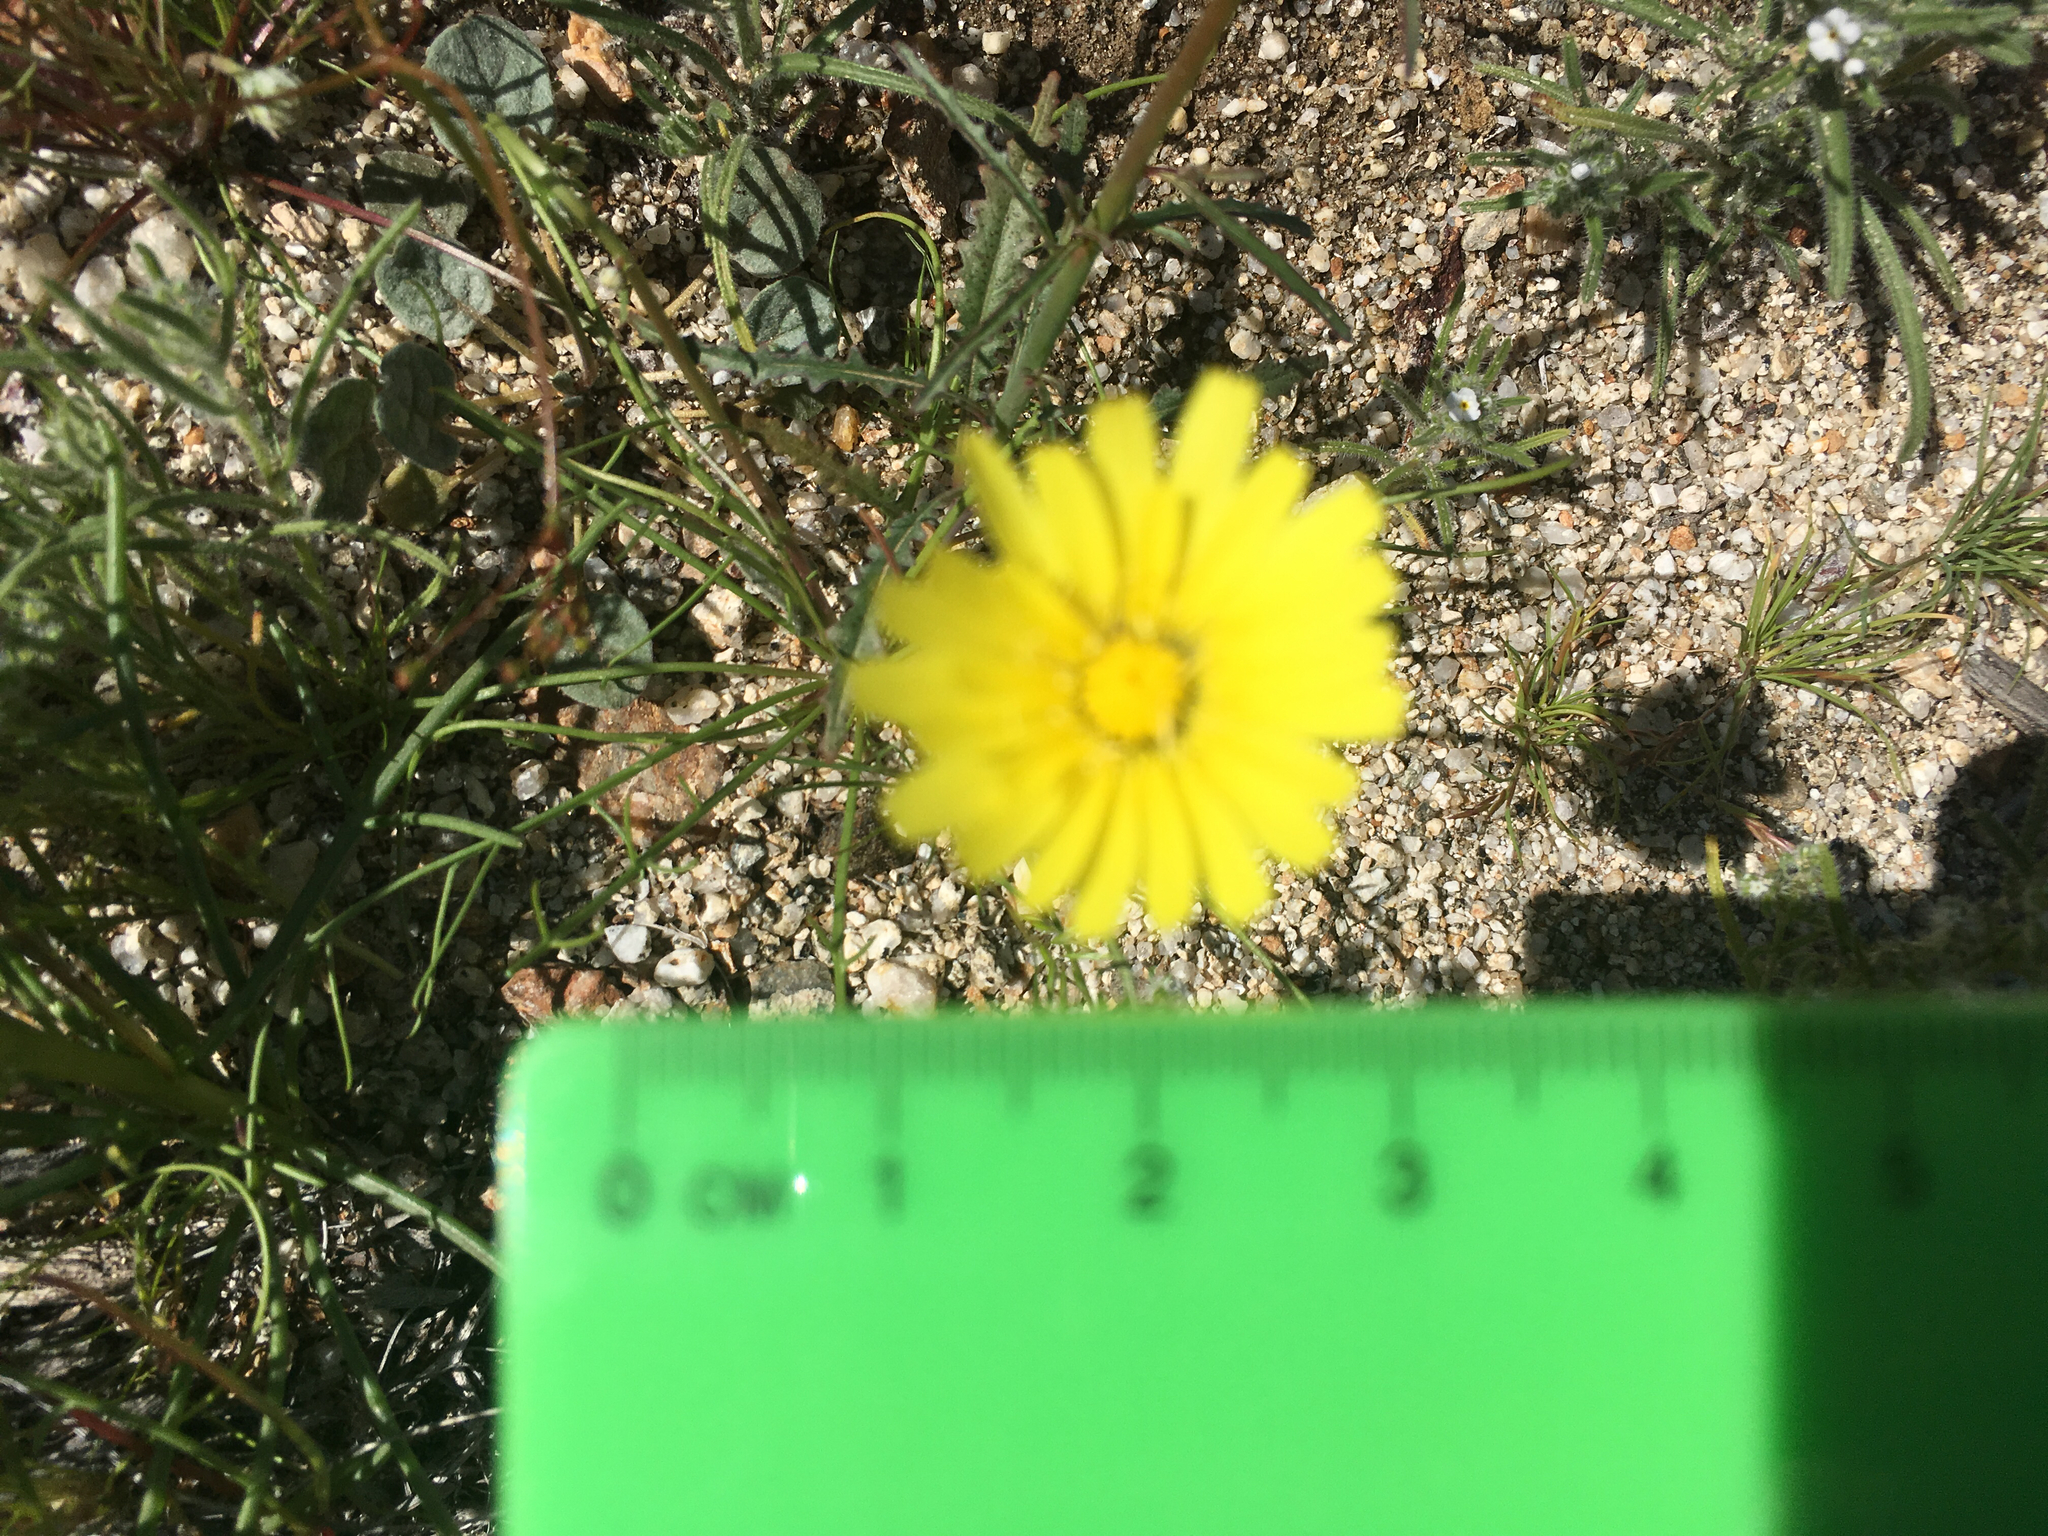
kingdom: Plantae
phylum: Tracheophyta
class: Magnoliopsida
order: Asterales
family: Asteraceae
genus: Malacothrix
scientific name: Malacothrix glabrata
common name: Smooth desert-dandelion
